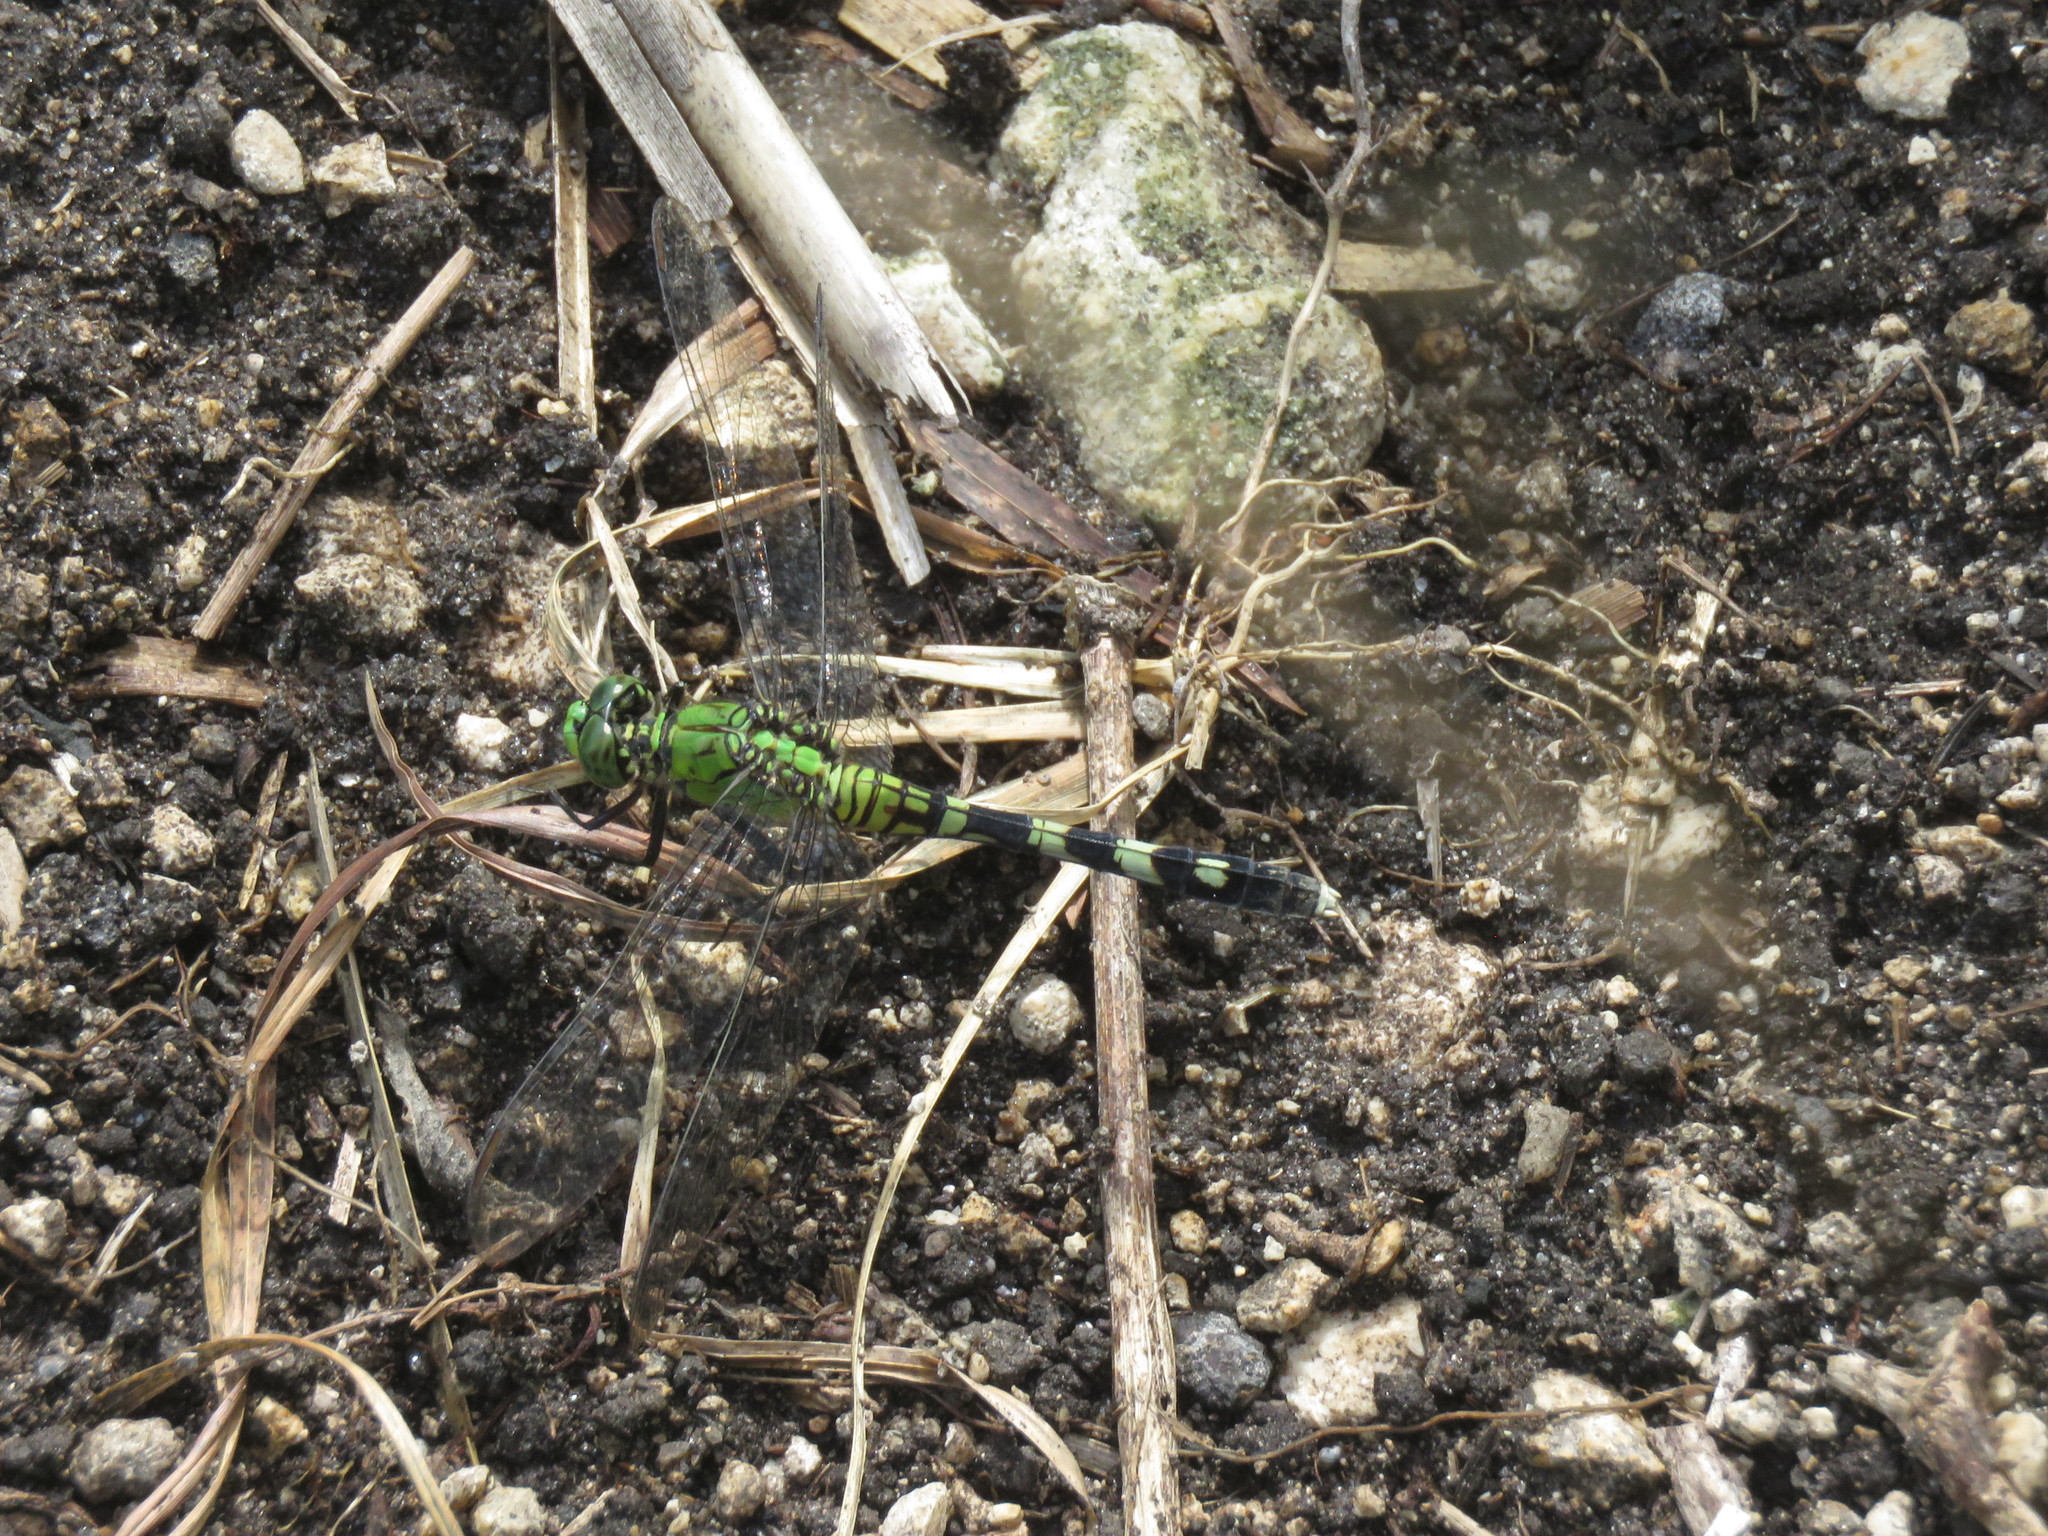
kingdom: Animalia
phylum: Arthropoda
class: Insecta
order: Odonata
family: Libellulidae
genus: Erythemis
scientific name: Erythemis simplicicollis
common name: Eastern pondhawk
